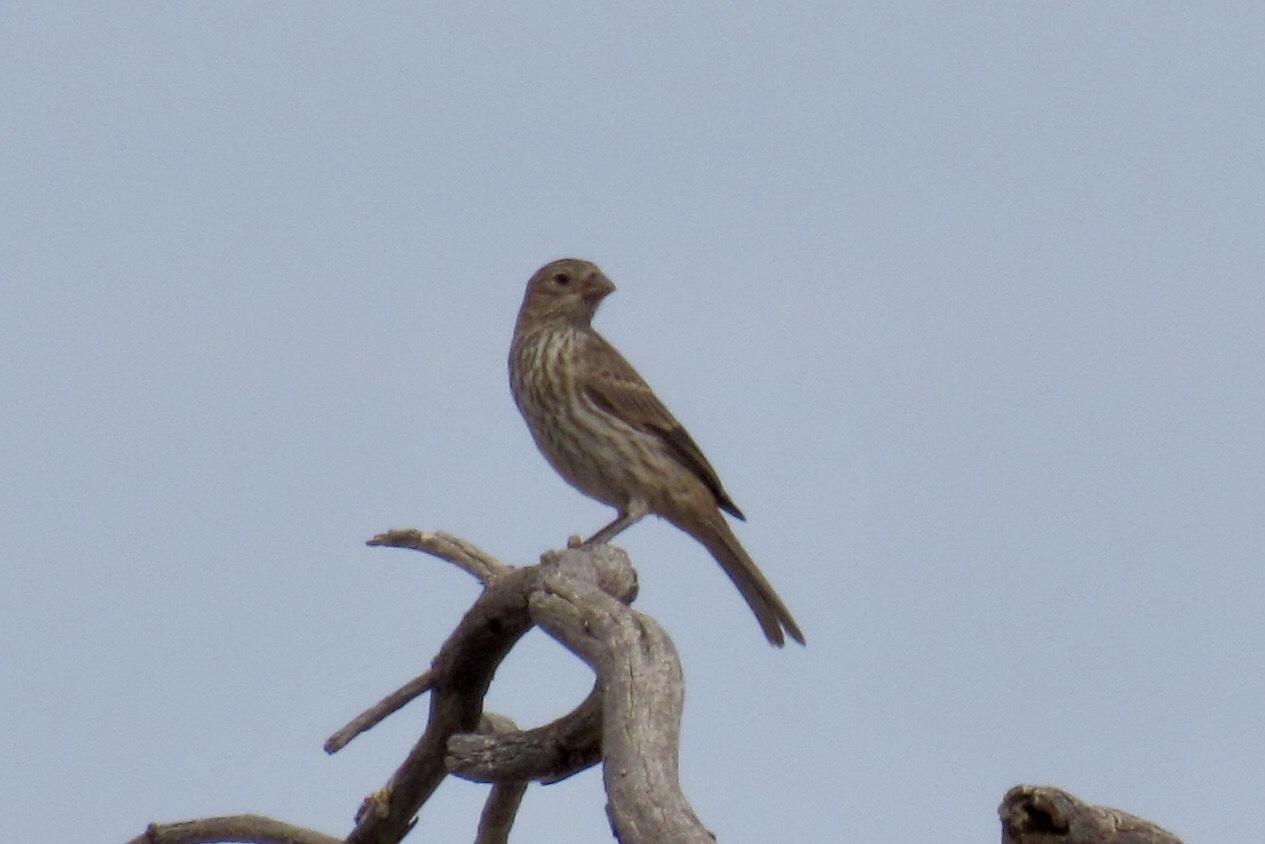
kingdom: Animalia
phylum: Chordata
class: Aves
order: Passeriformes
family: Fringillidae
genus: Haemorhous
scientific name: Haemorhous mexicanus
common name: House finch
